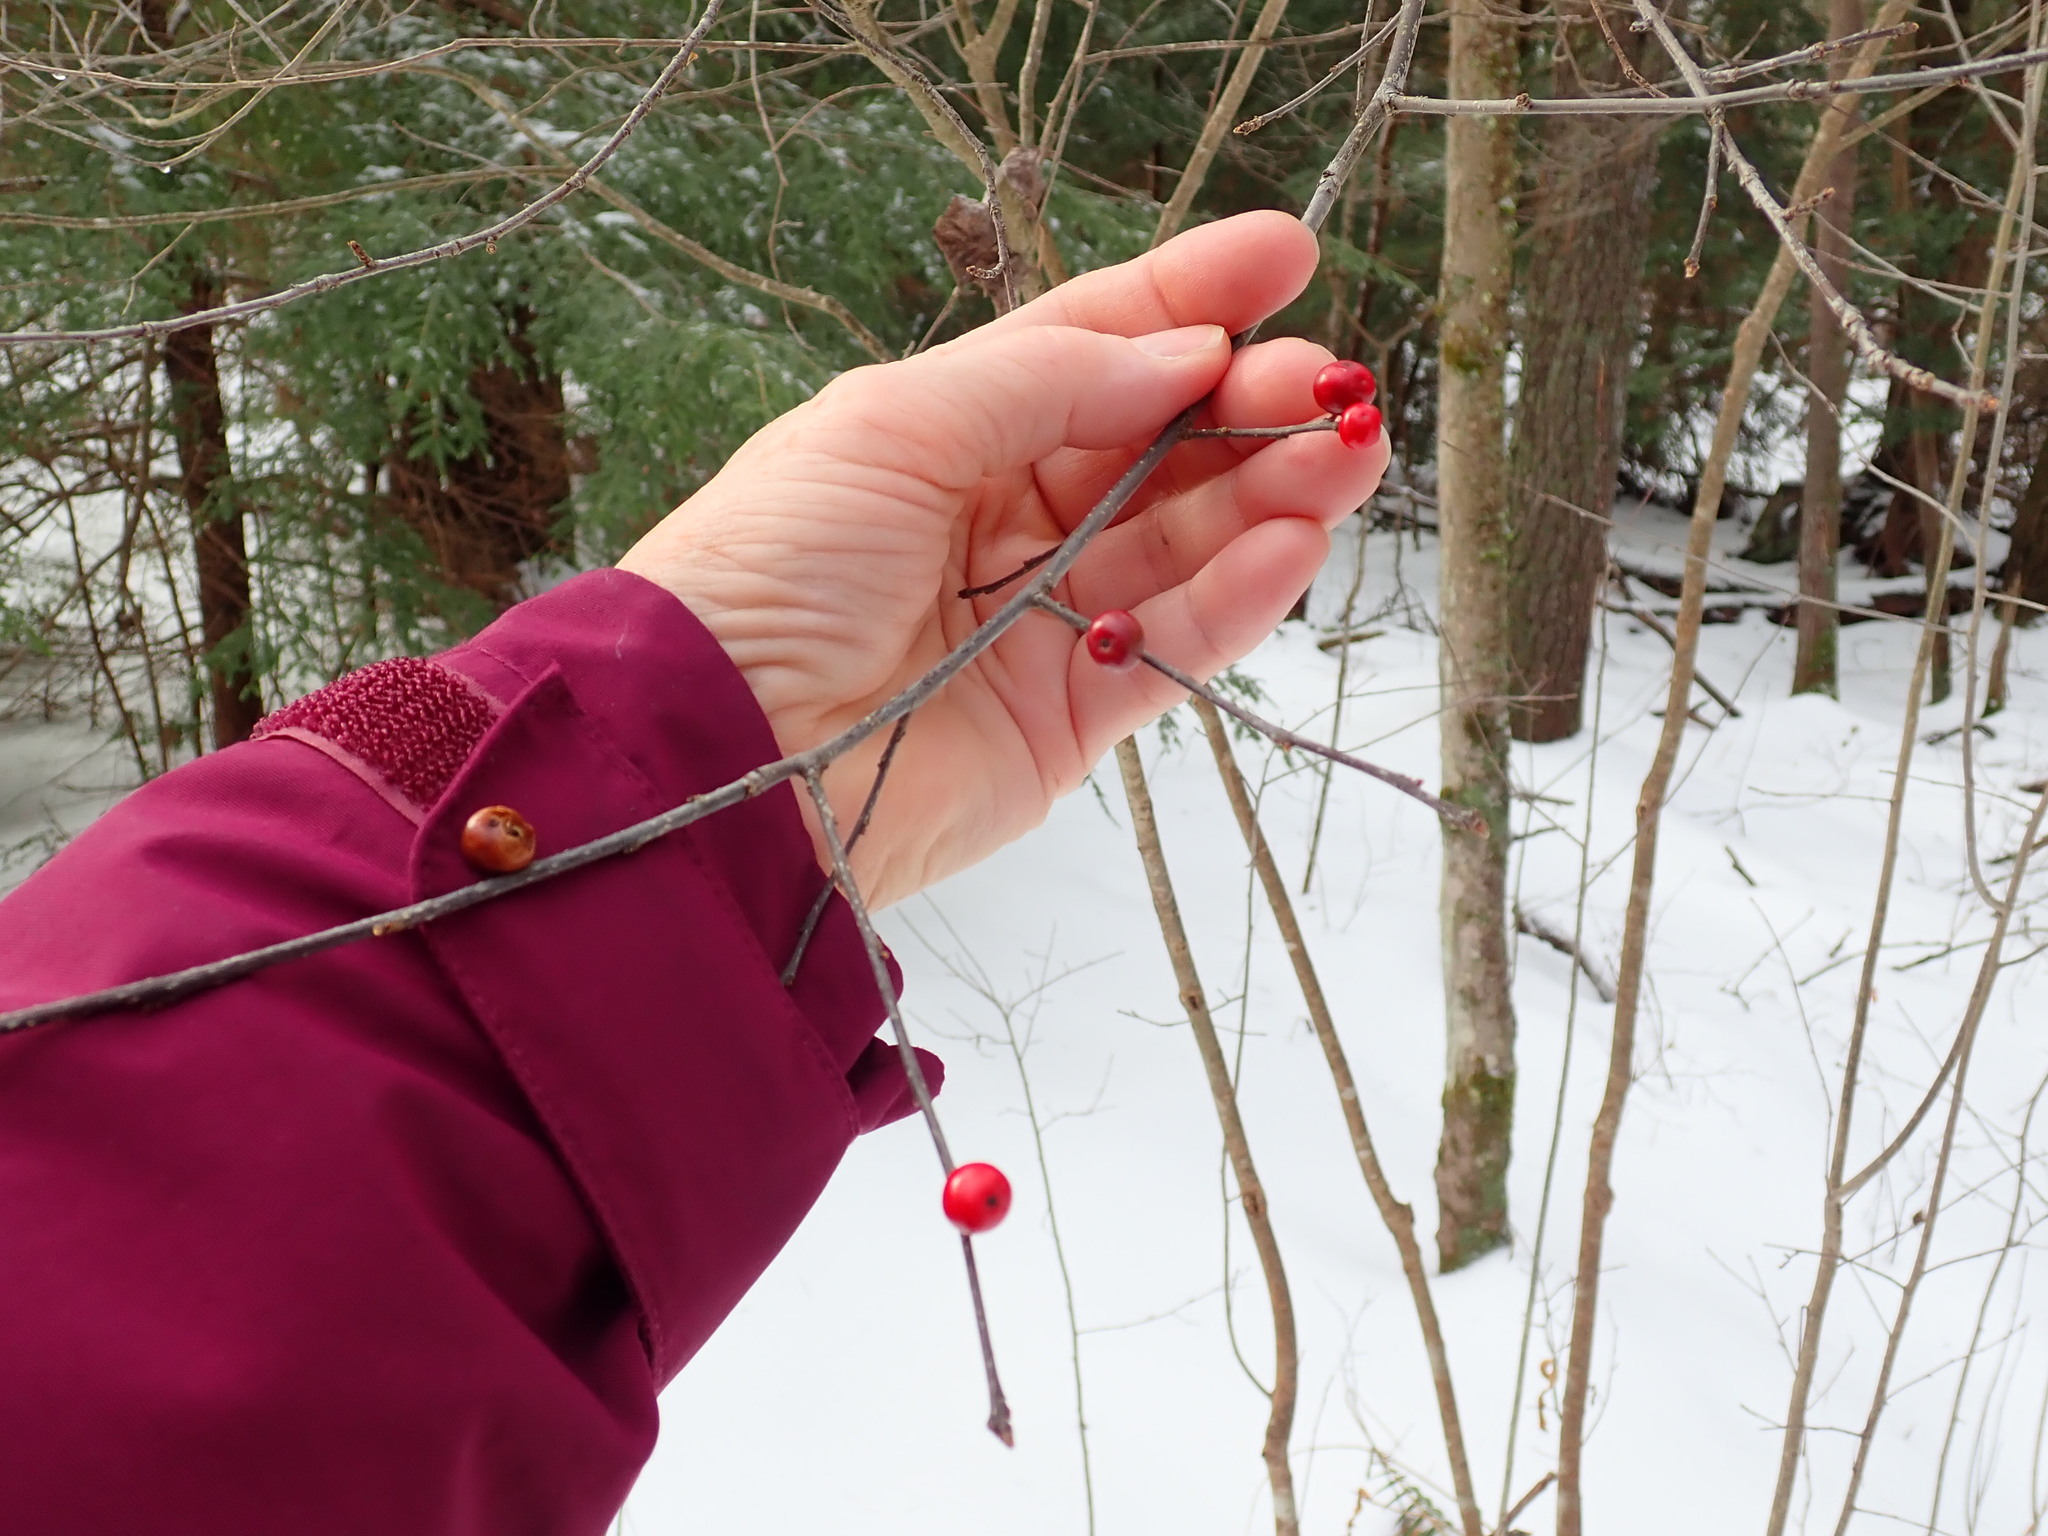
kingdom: Plantae
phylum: Tracheophyta
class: Magnoliopsida
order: Aquifoliales
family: Aquifoliaceae
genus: Ilex
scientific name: Ilex verticillata
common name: Virginia winterberry
